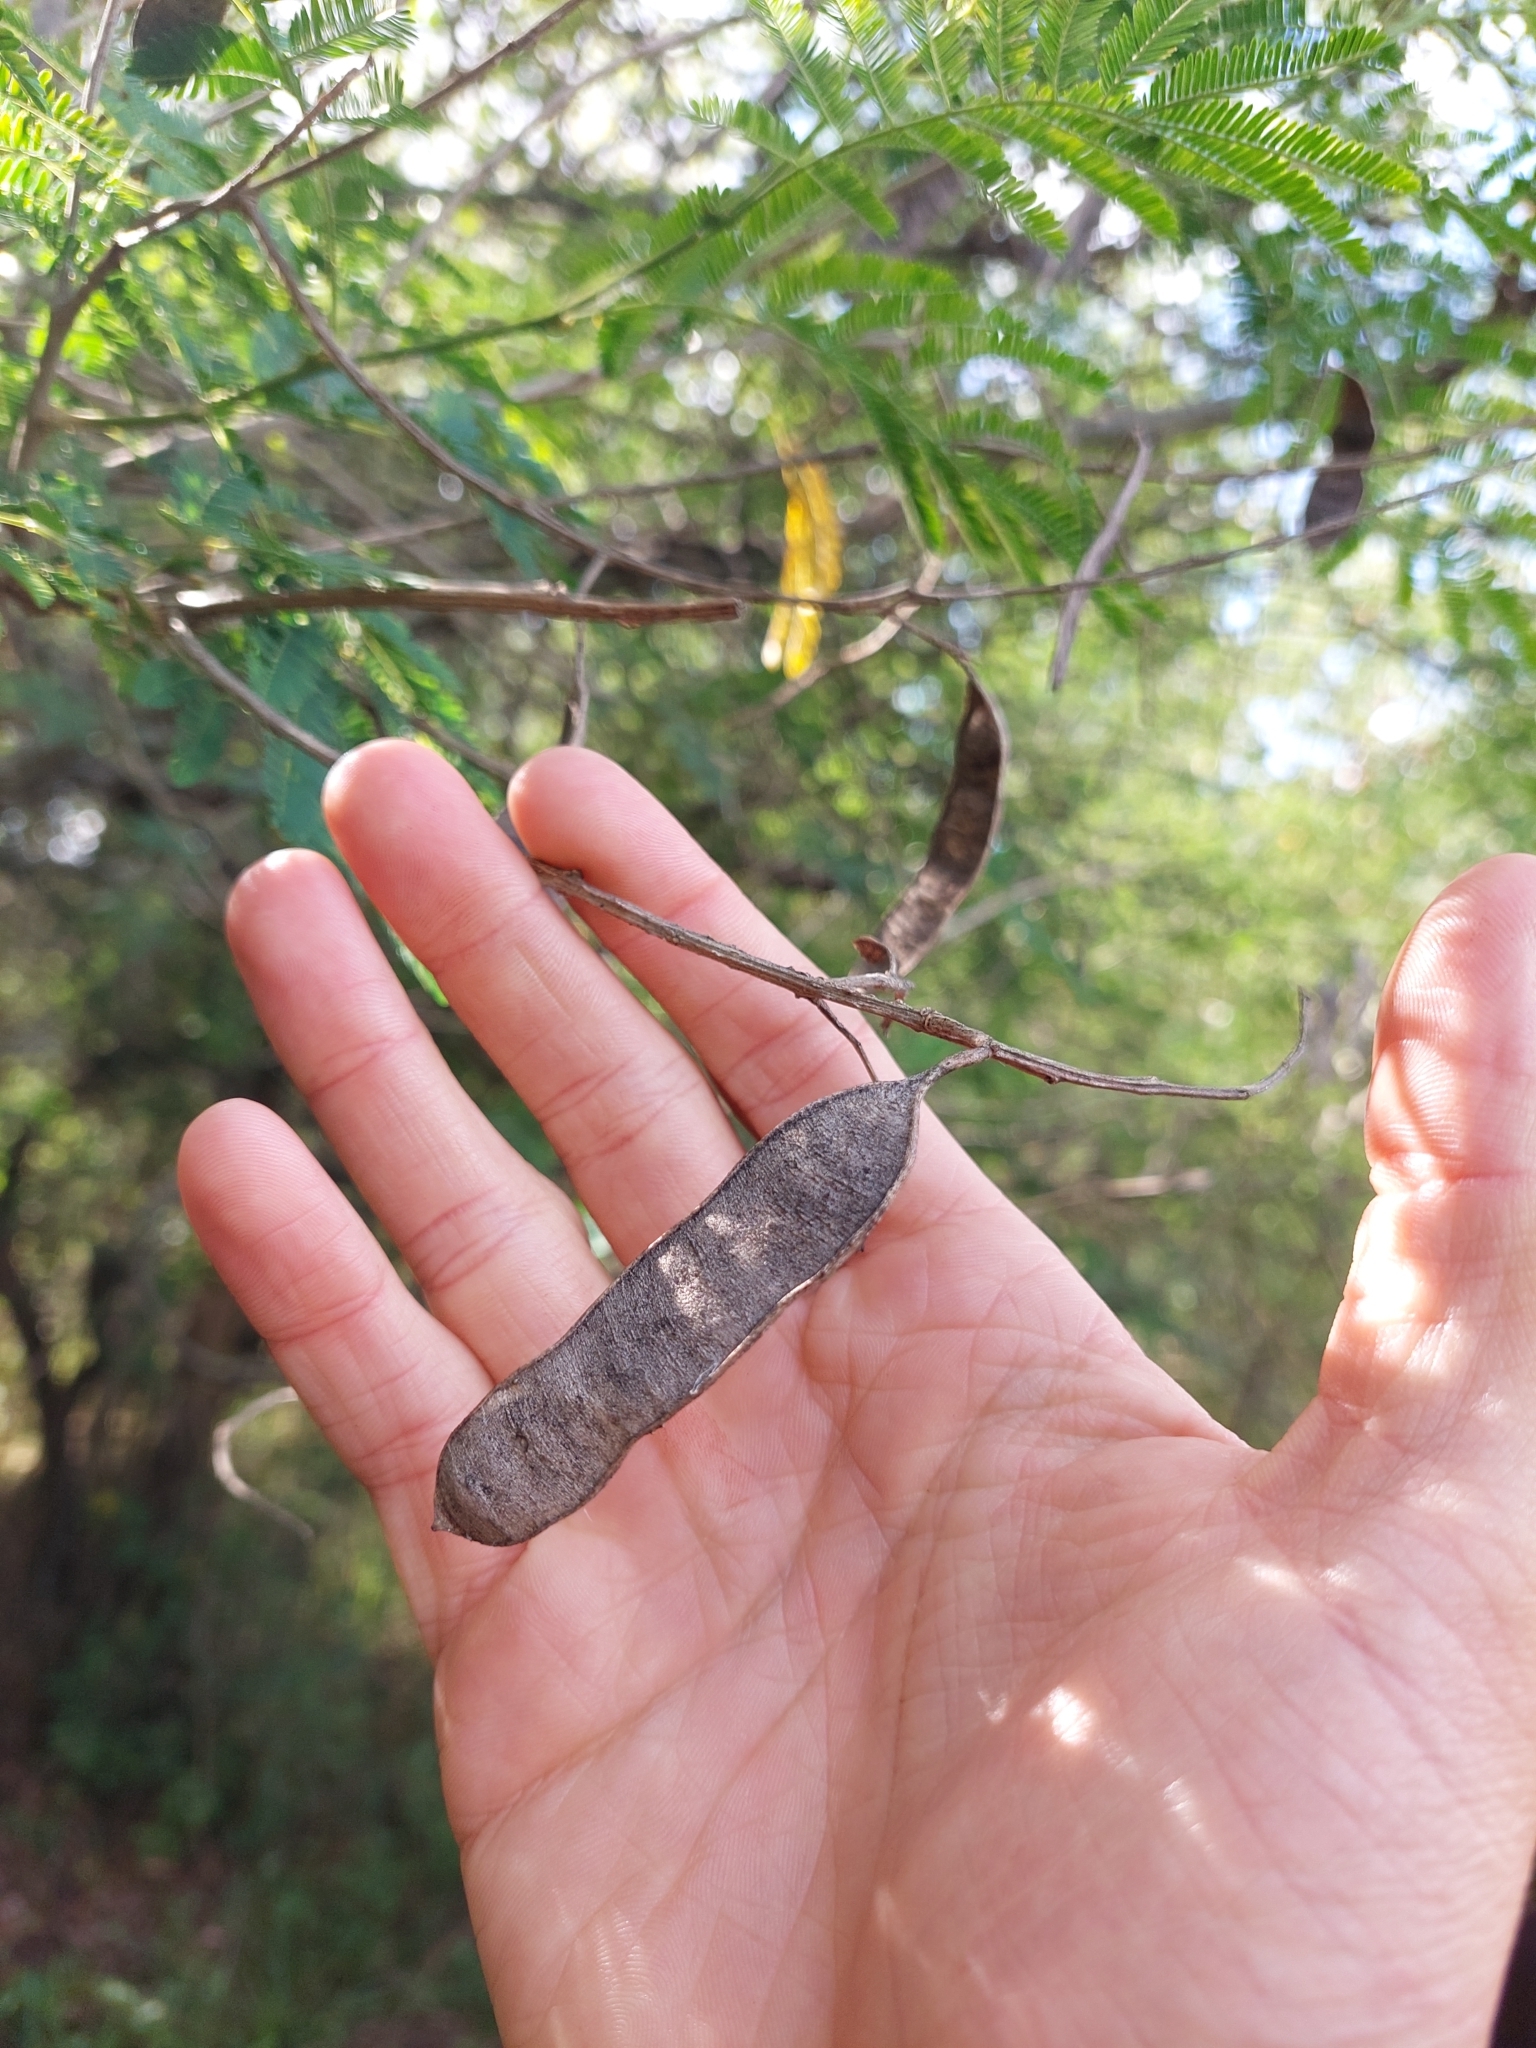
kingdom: Plantae
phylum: Tracheophyta
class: Magnoliopsida
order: Fabales
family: Fabaceae
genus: Senegalia
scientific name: Senegalia bonariensis
